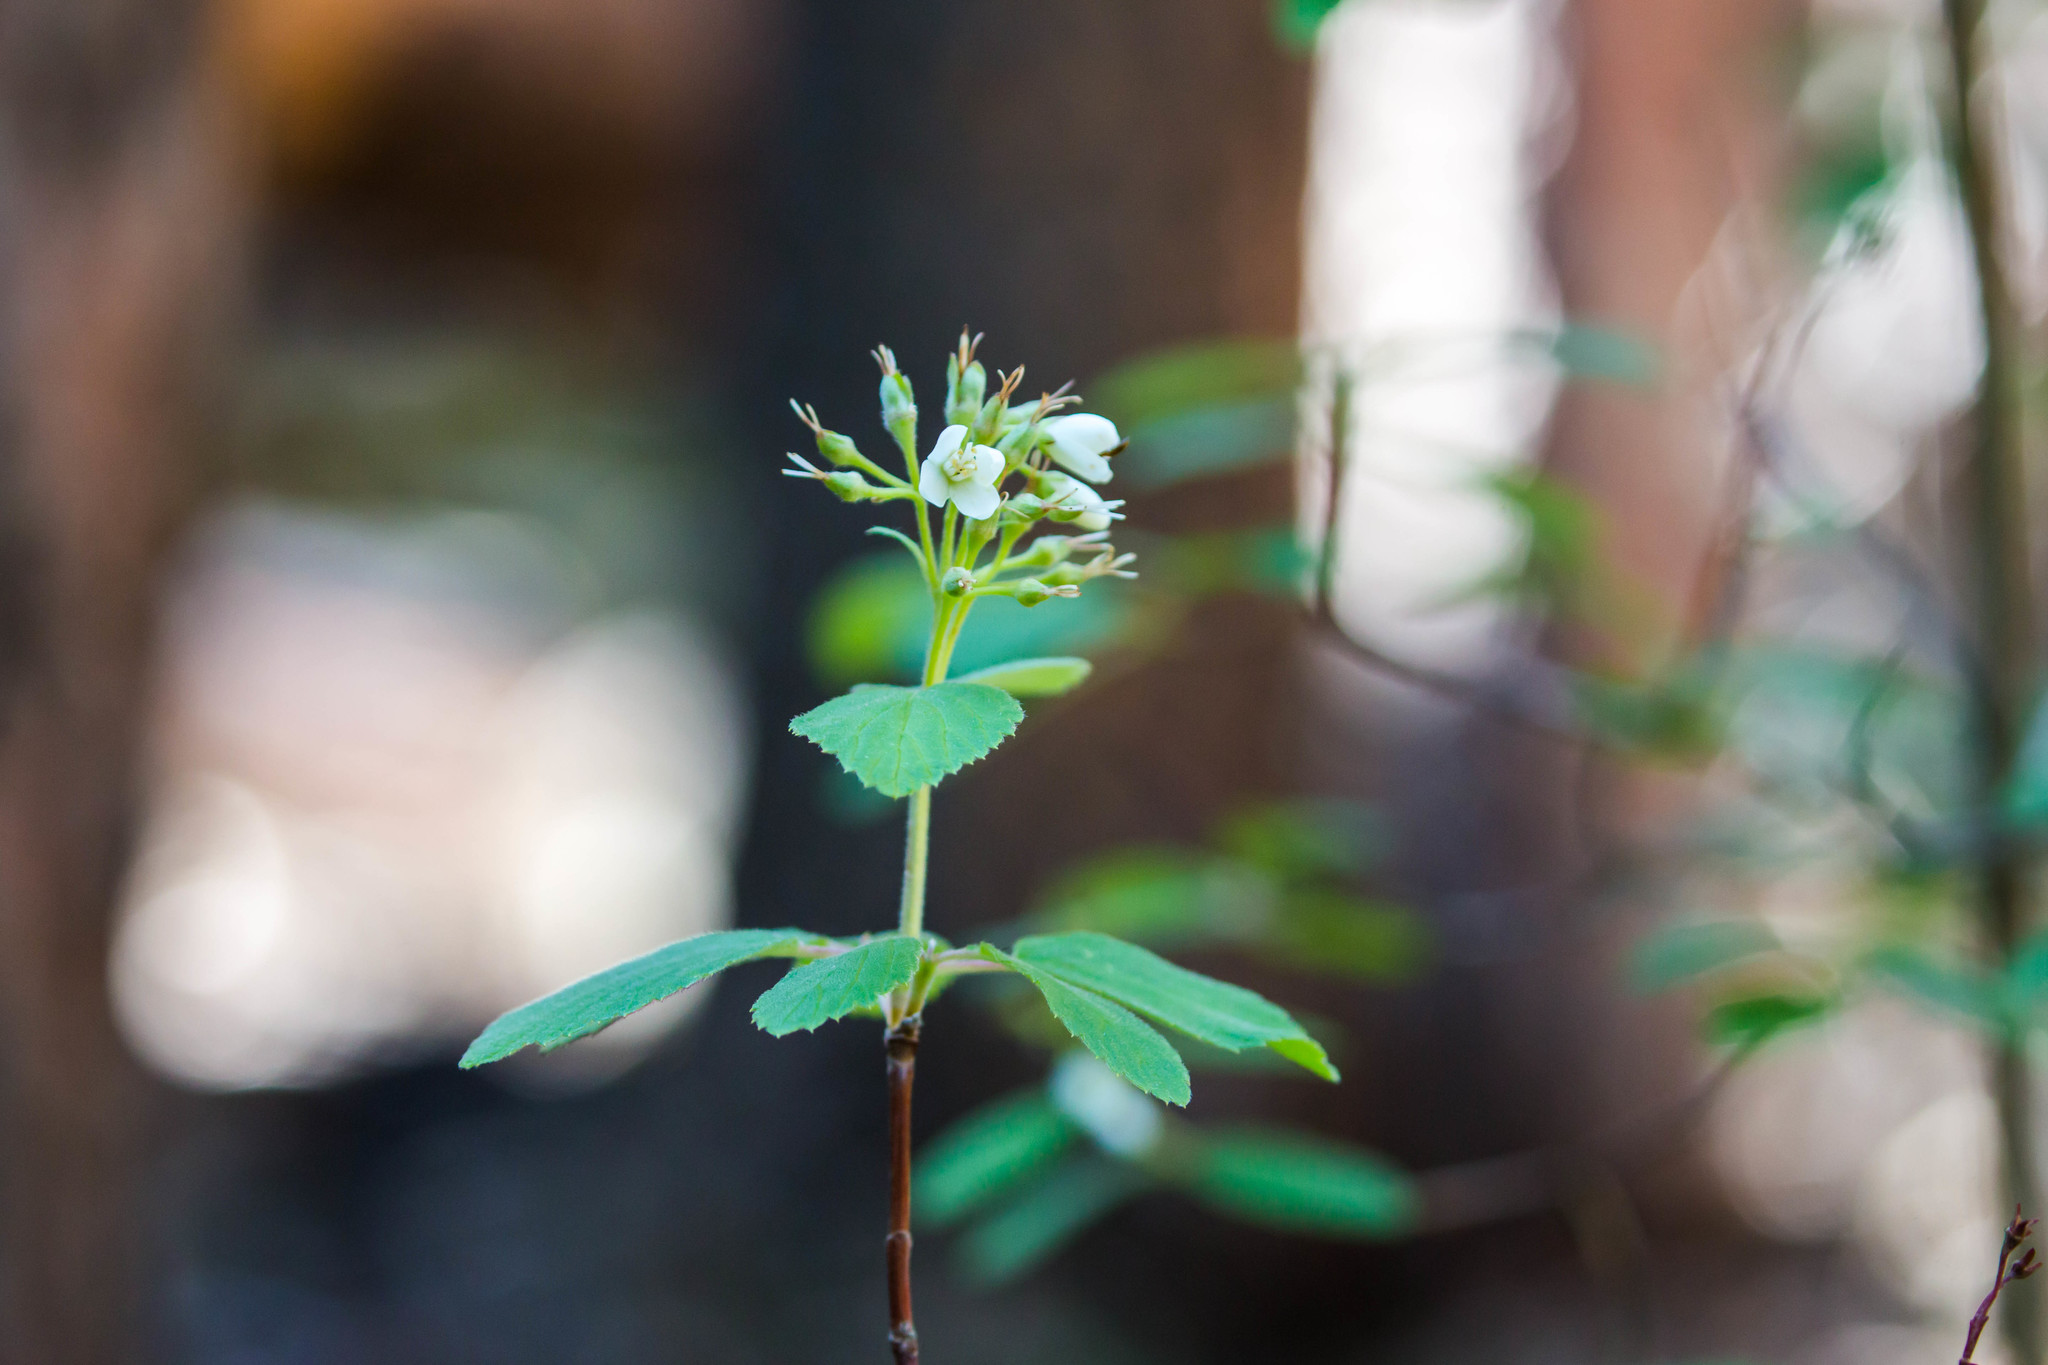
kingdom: Plantae
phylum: Tracheophyta
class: Magnoliopsida
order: Cornales
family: Hydrangeaceae
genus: Jamesia
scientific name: Jamesia americana
